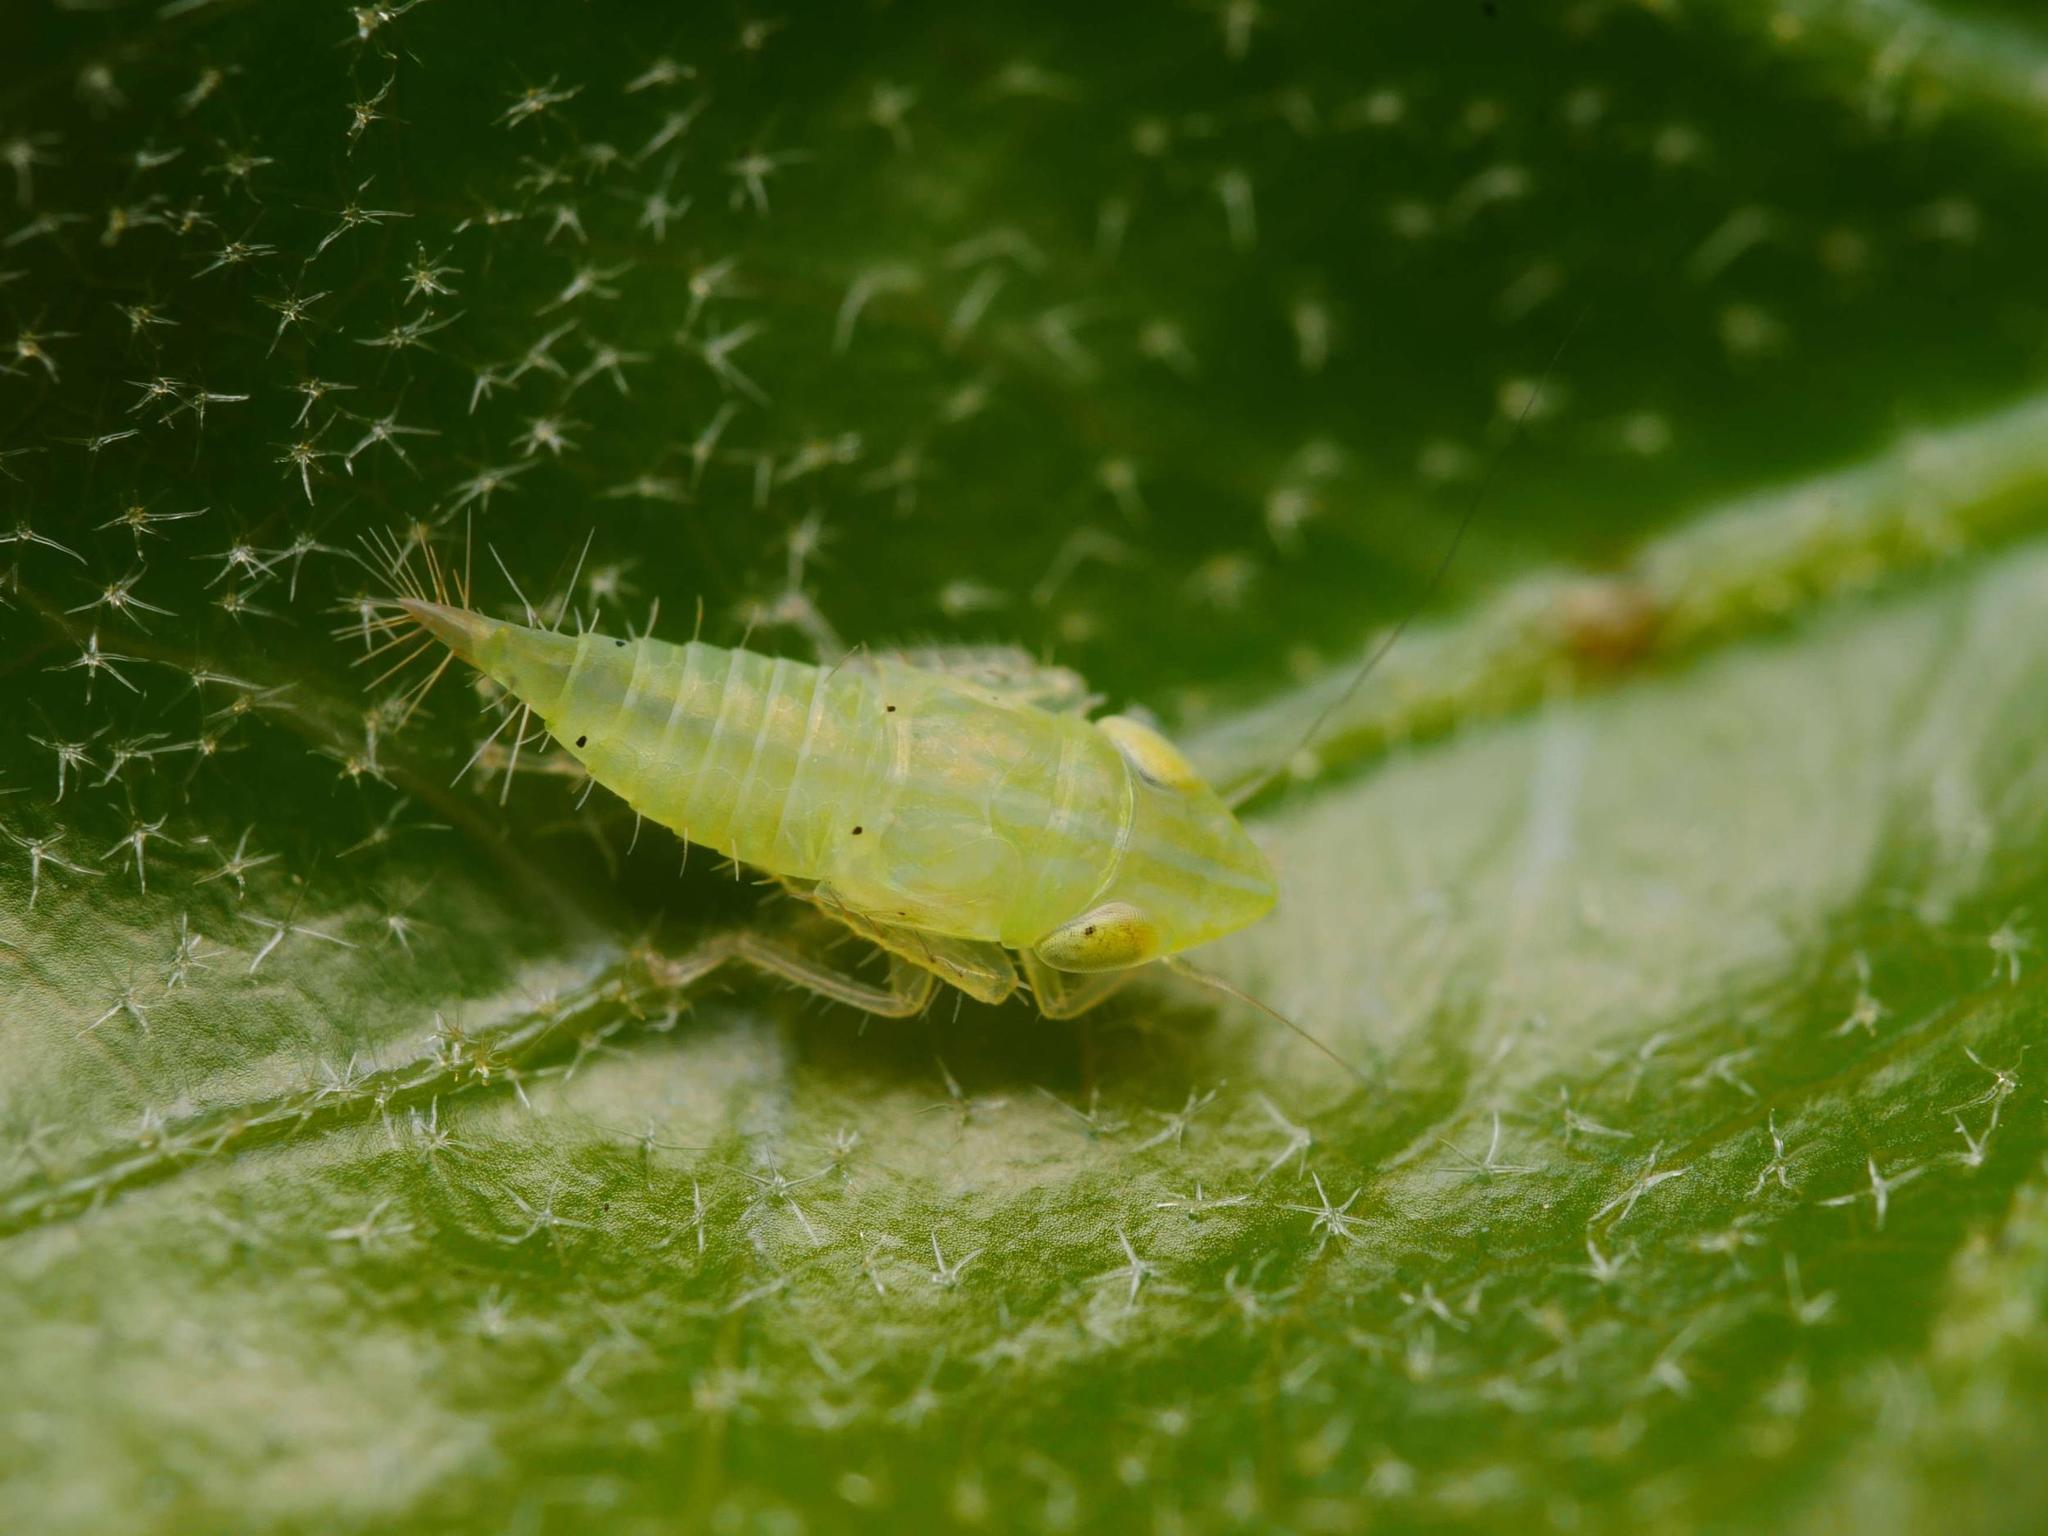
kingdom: Animalia
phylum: Arthropoda
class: Insecta
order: Hemiptera
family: Cicadellidae
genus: Synophropsis
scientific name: Synophropsis lauri
